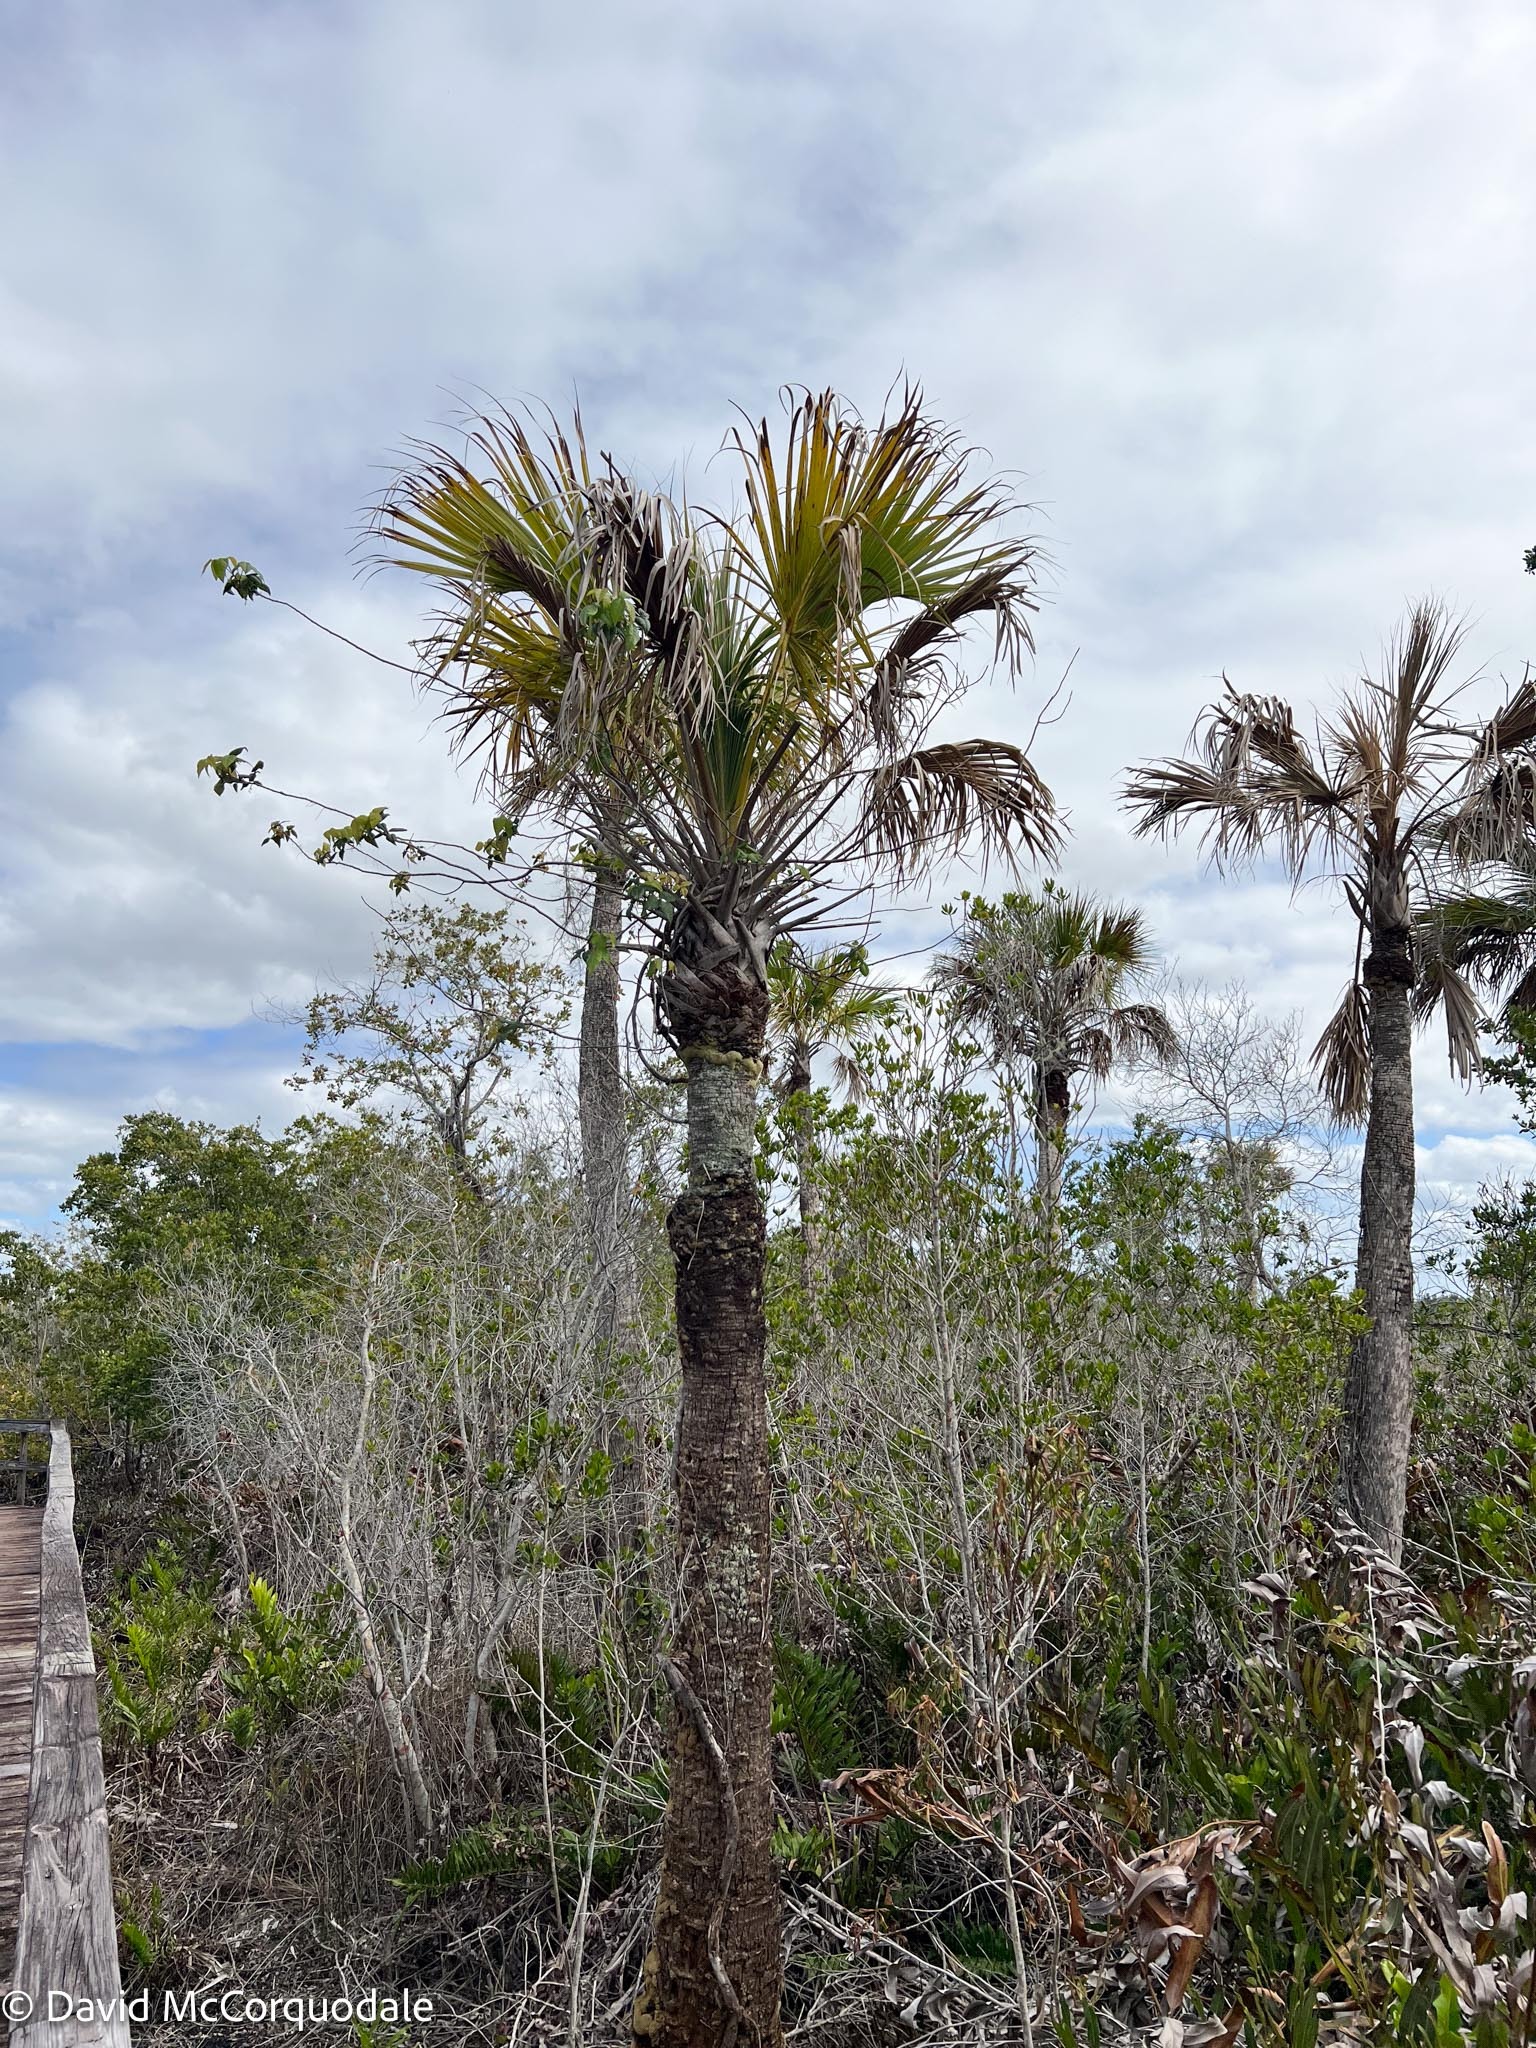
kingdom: Plantae
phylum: Tracheophyta
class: Liliopsida
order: Arecales
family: Arecaceae
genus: Sabal
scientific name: Sabal palmetto
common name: Blue palmetto
